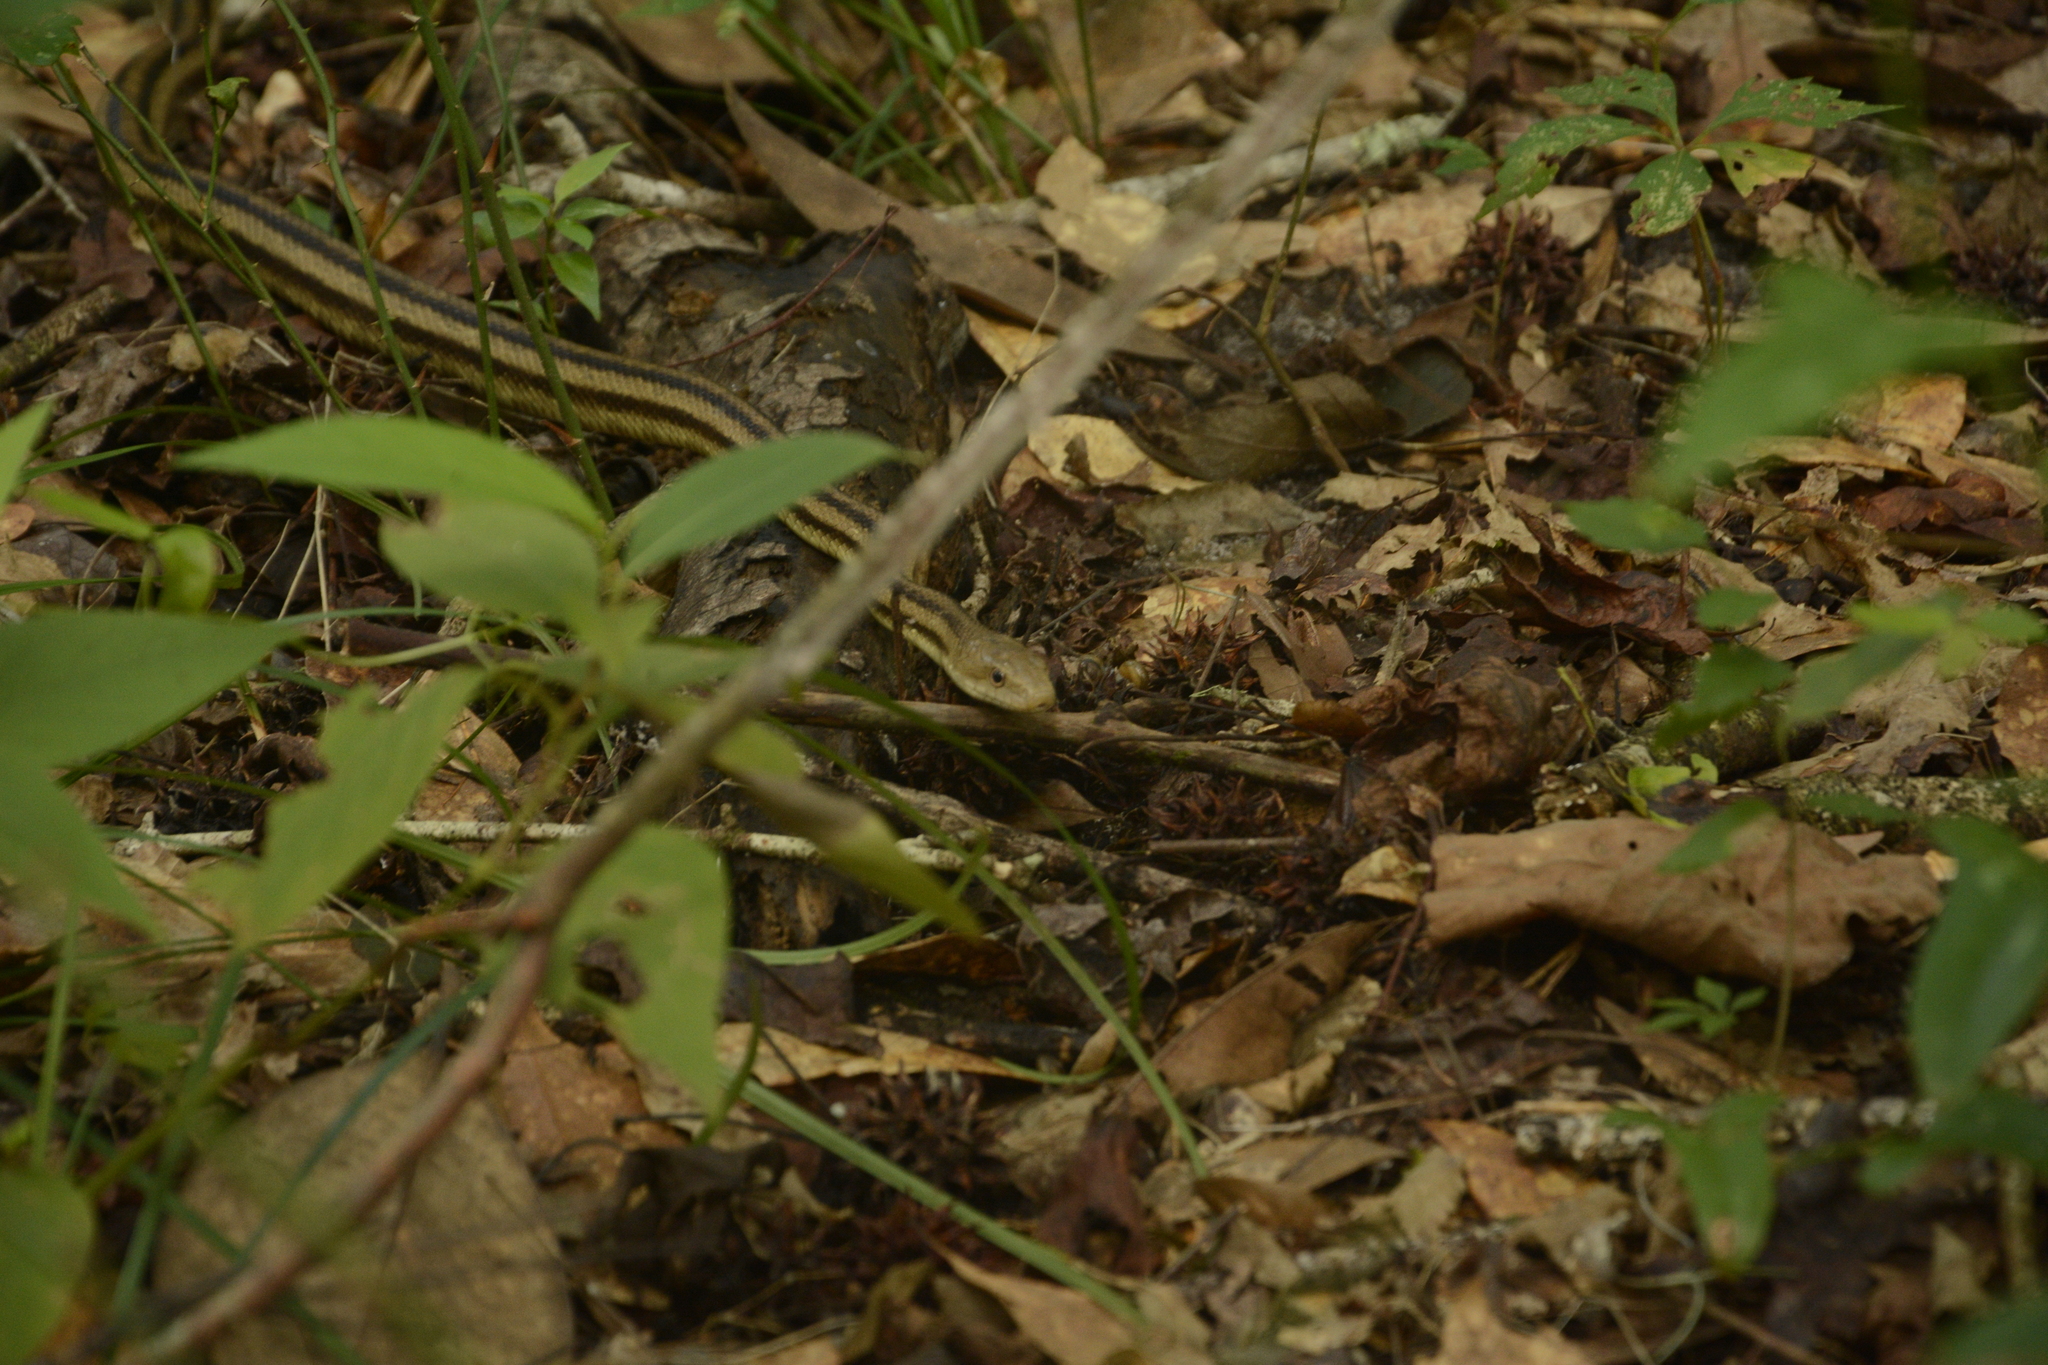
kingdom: Animalia
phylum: Chordata
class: Squamata
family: Colubridae
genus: Pantherophis
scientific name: Pantherophis alleghaniensis
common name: Eastern rat snake
